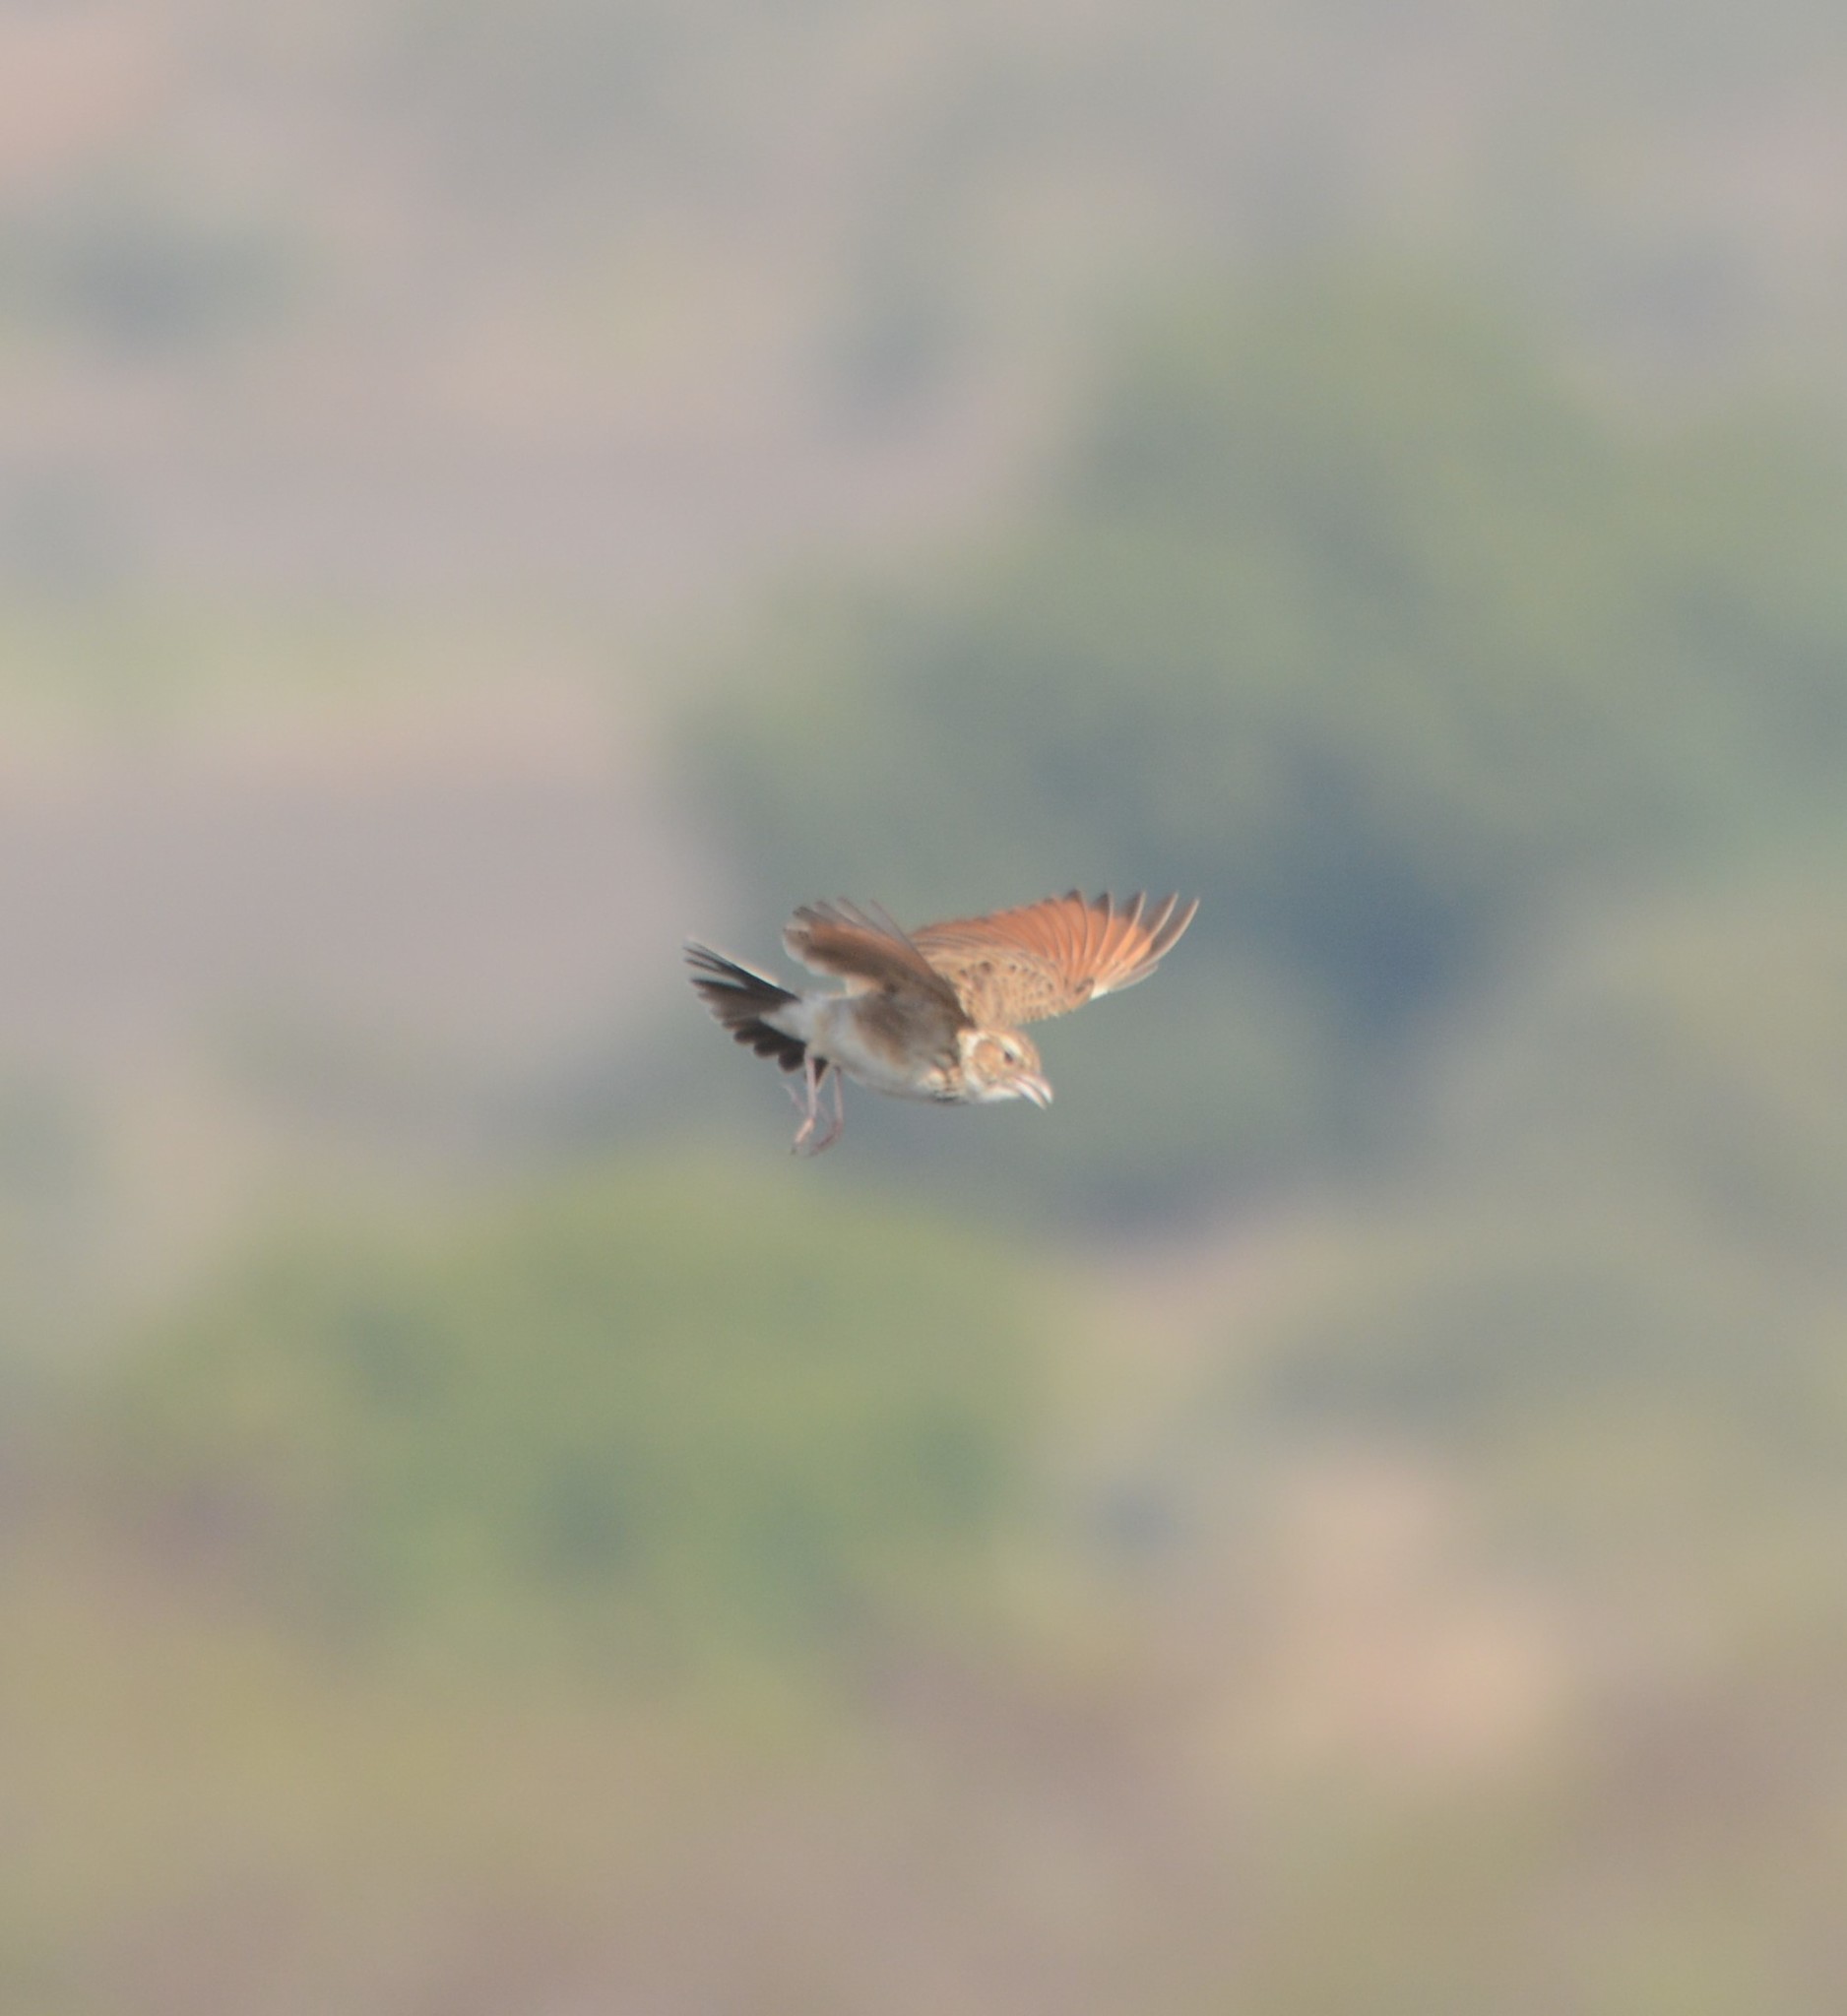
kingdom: Animalia
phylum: Chordata
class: Aves
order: Passeriformes
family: Alaudidae
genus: Mirafra
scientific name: Mirafra erythroptera
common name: Indian bush lark
